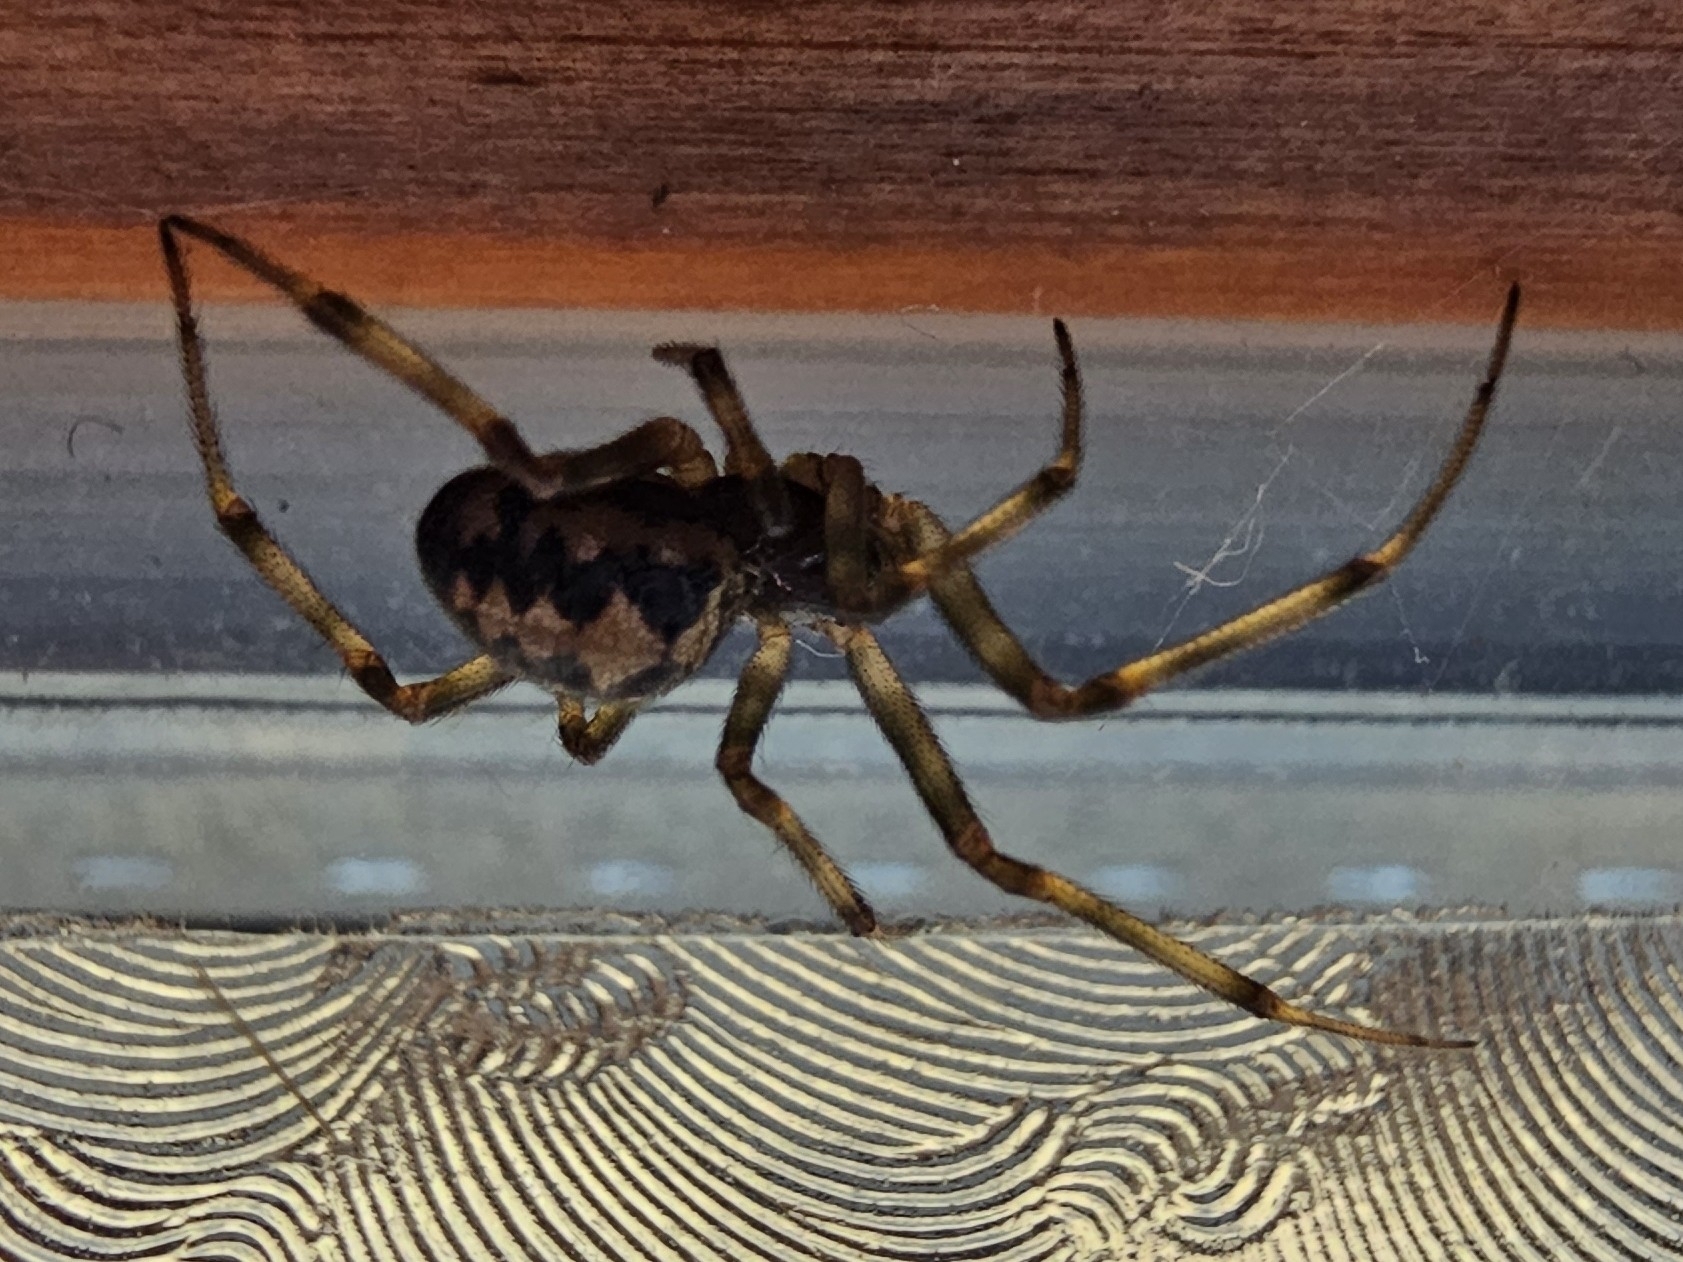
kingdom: Animalia
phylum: Arthropoda
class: Arachnida
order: Araneae
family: Theridiidae
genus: Steatoda
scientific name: Steatoda triangulosa
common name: Triangulate bud spider
